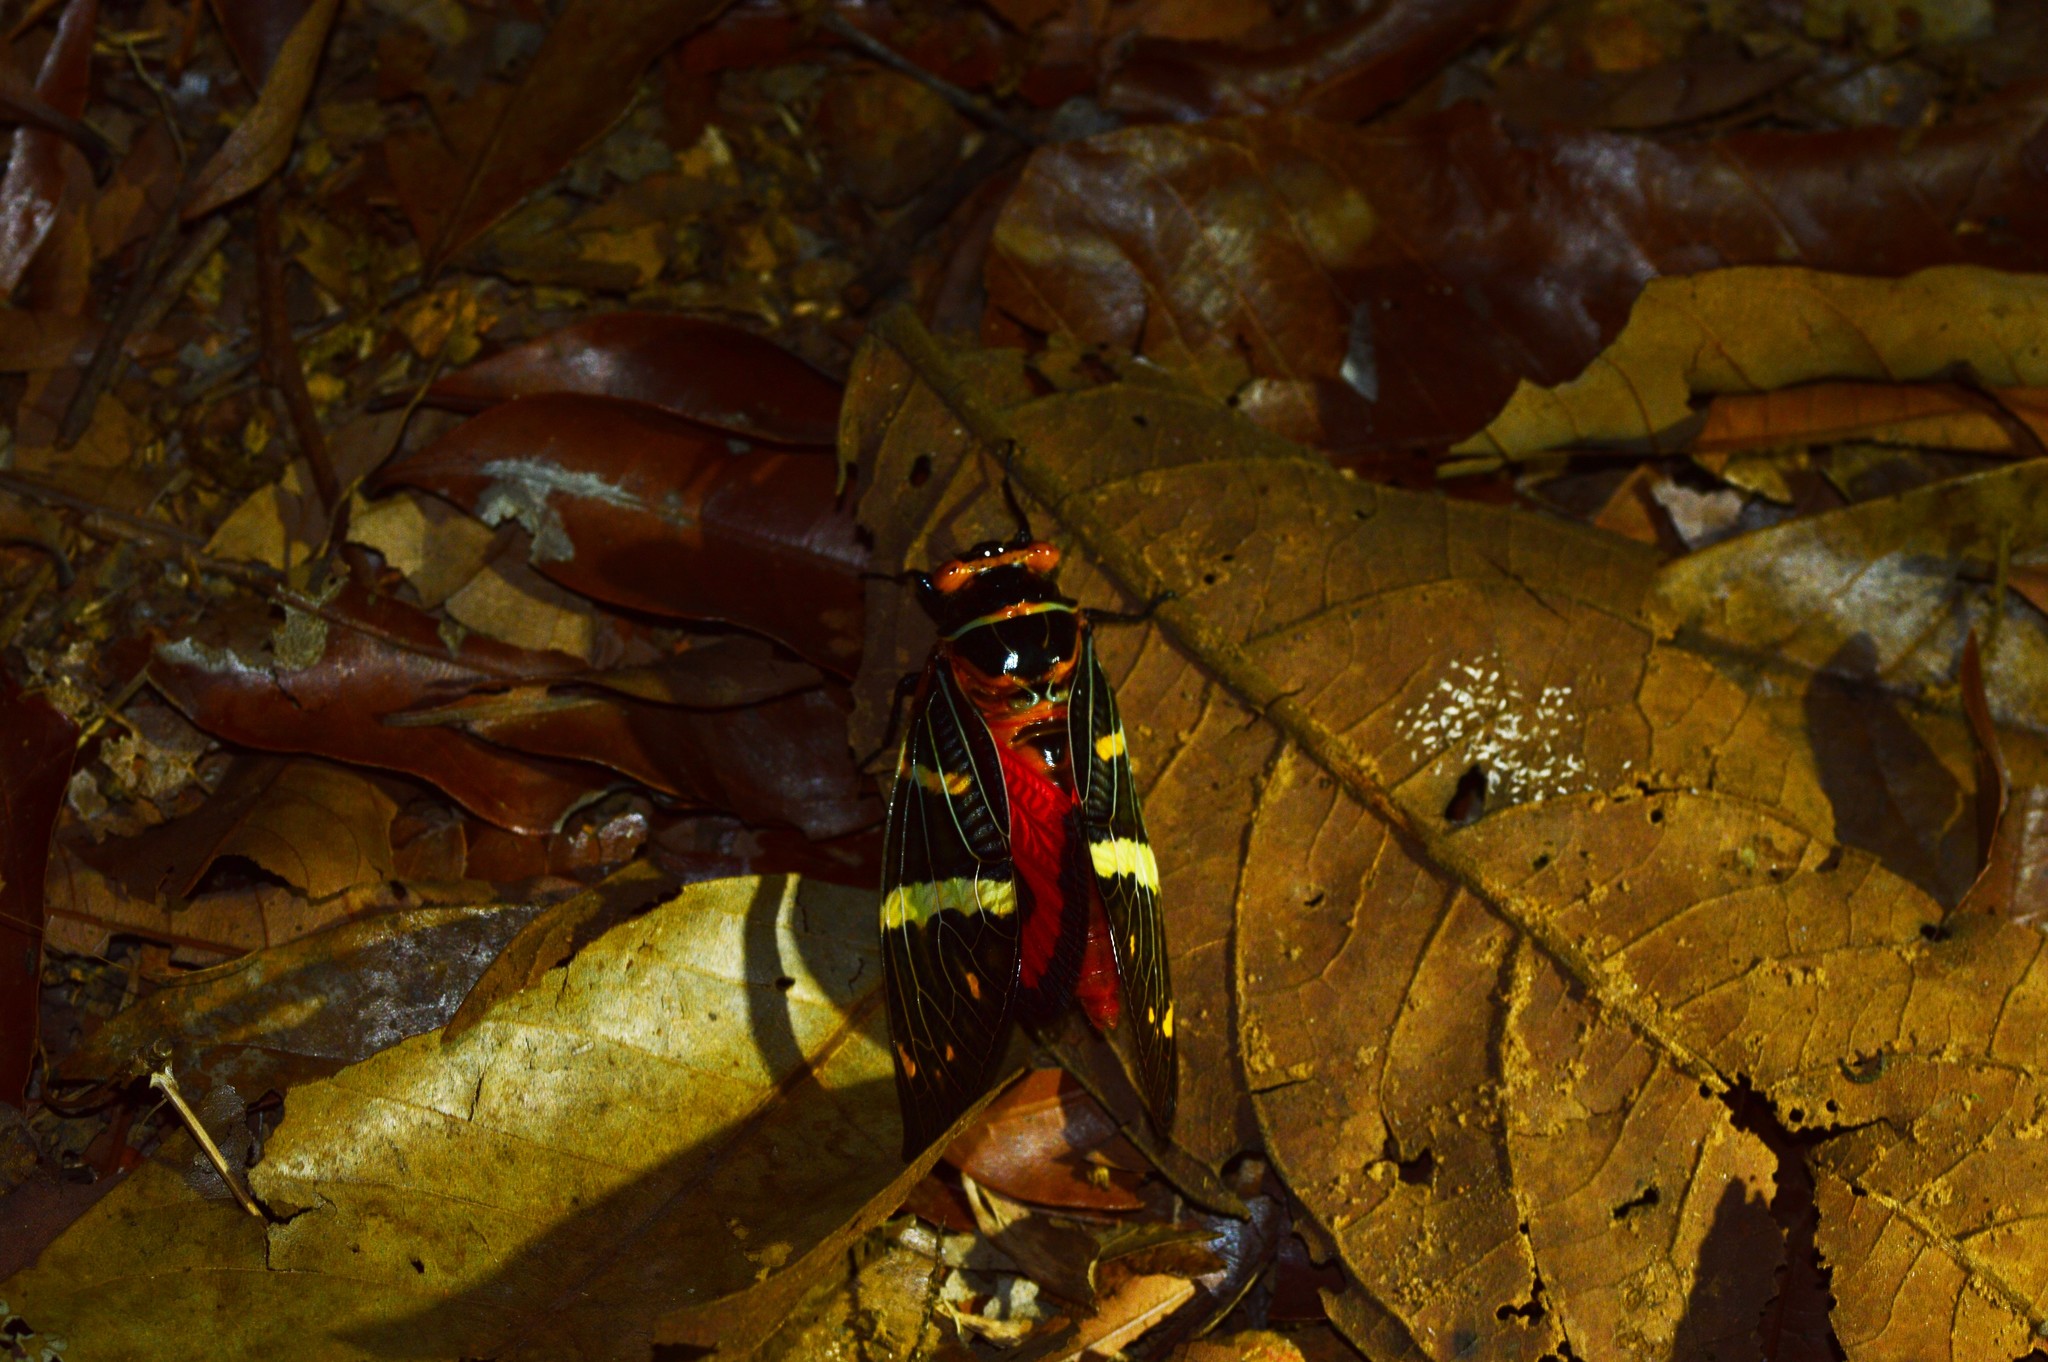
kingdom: Animalia
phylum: Arthropoda
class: Insecta
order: Hemiptera
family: Cicadidae
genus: Gaeana
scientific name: Gaeana atkinsoni
